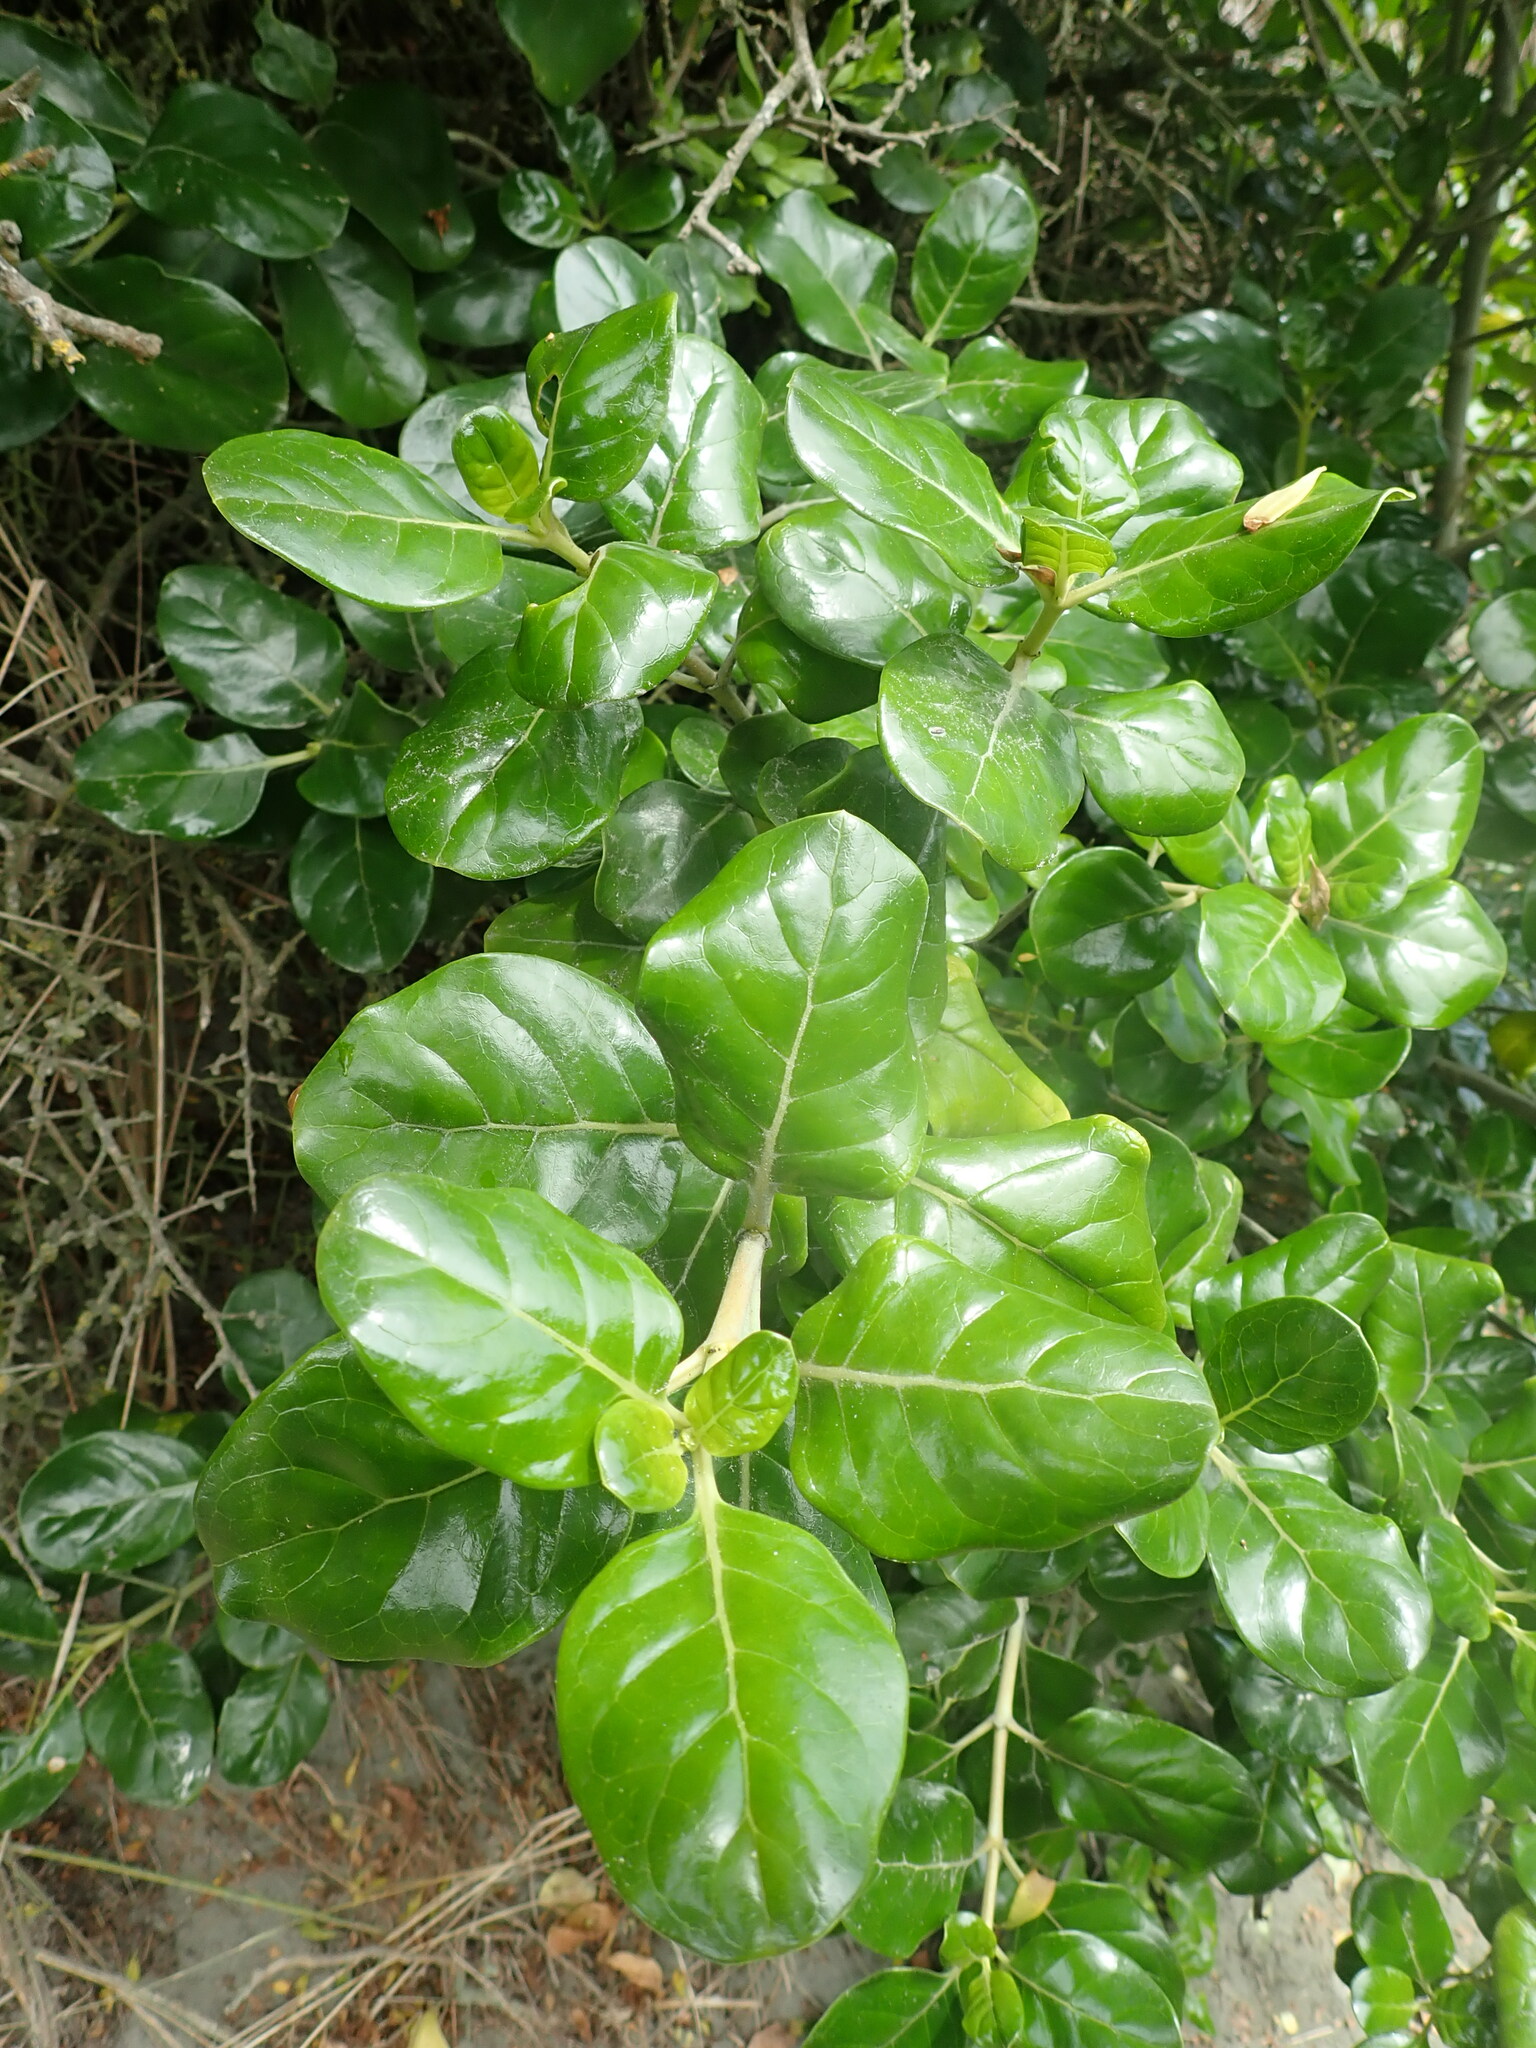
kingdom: Plantae
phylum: Tracheophyta
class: Magnoliopsida
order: Gentianales
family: Rubiaceae
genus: Coprosma
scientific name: Coprosma repens
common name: Tree bedstraw
